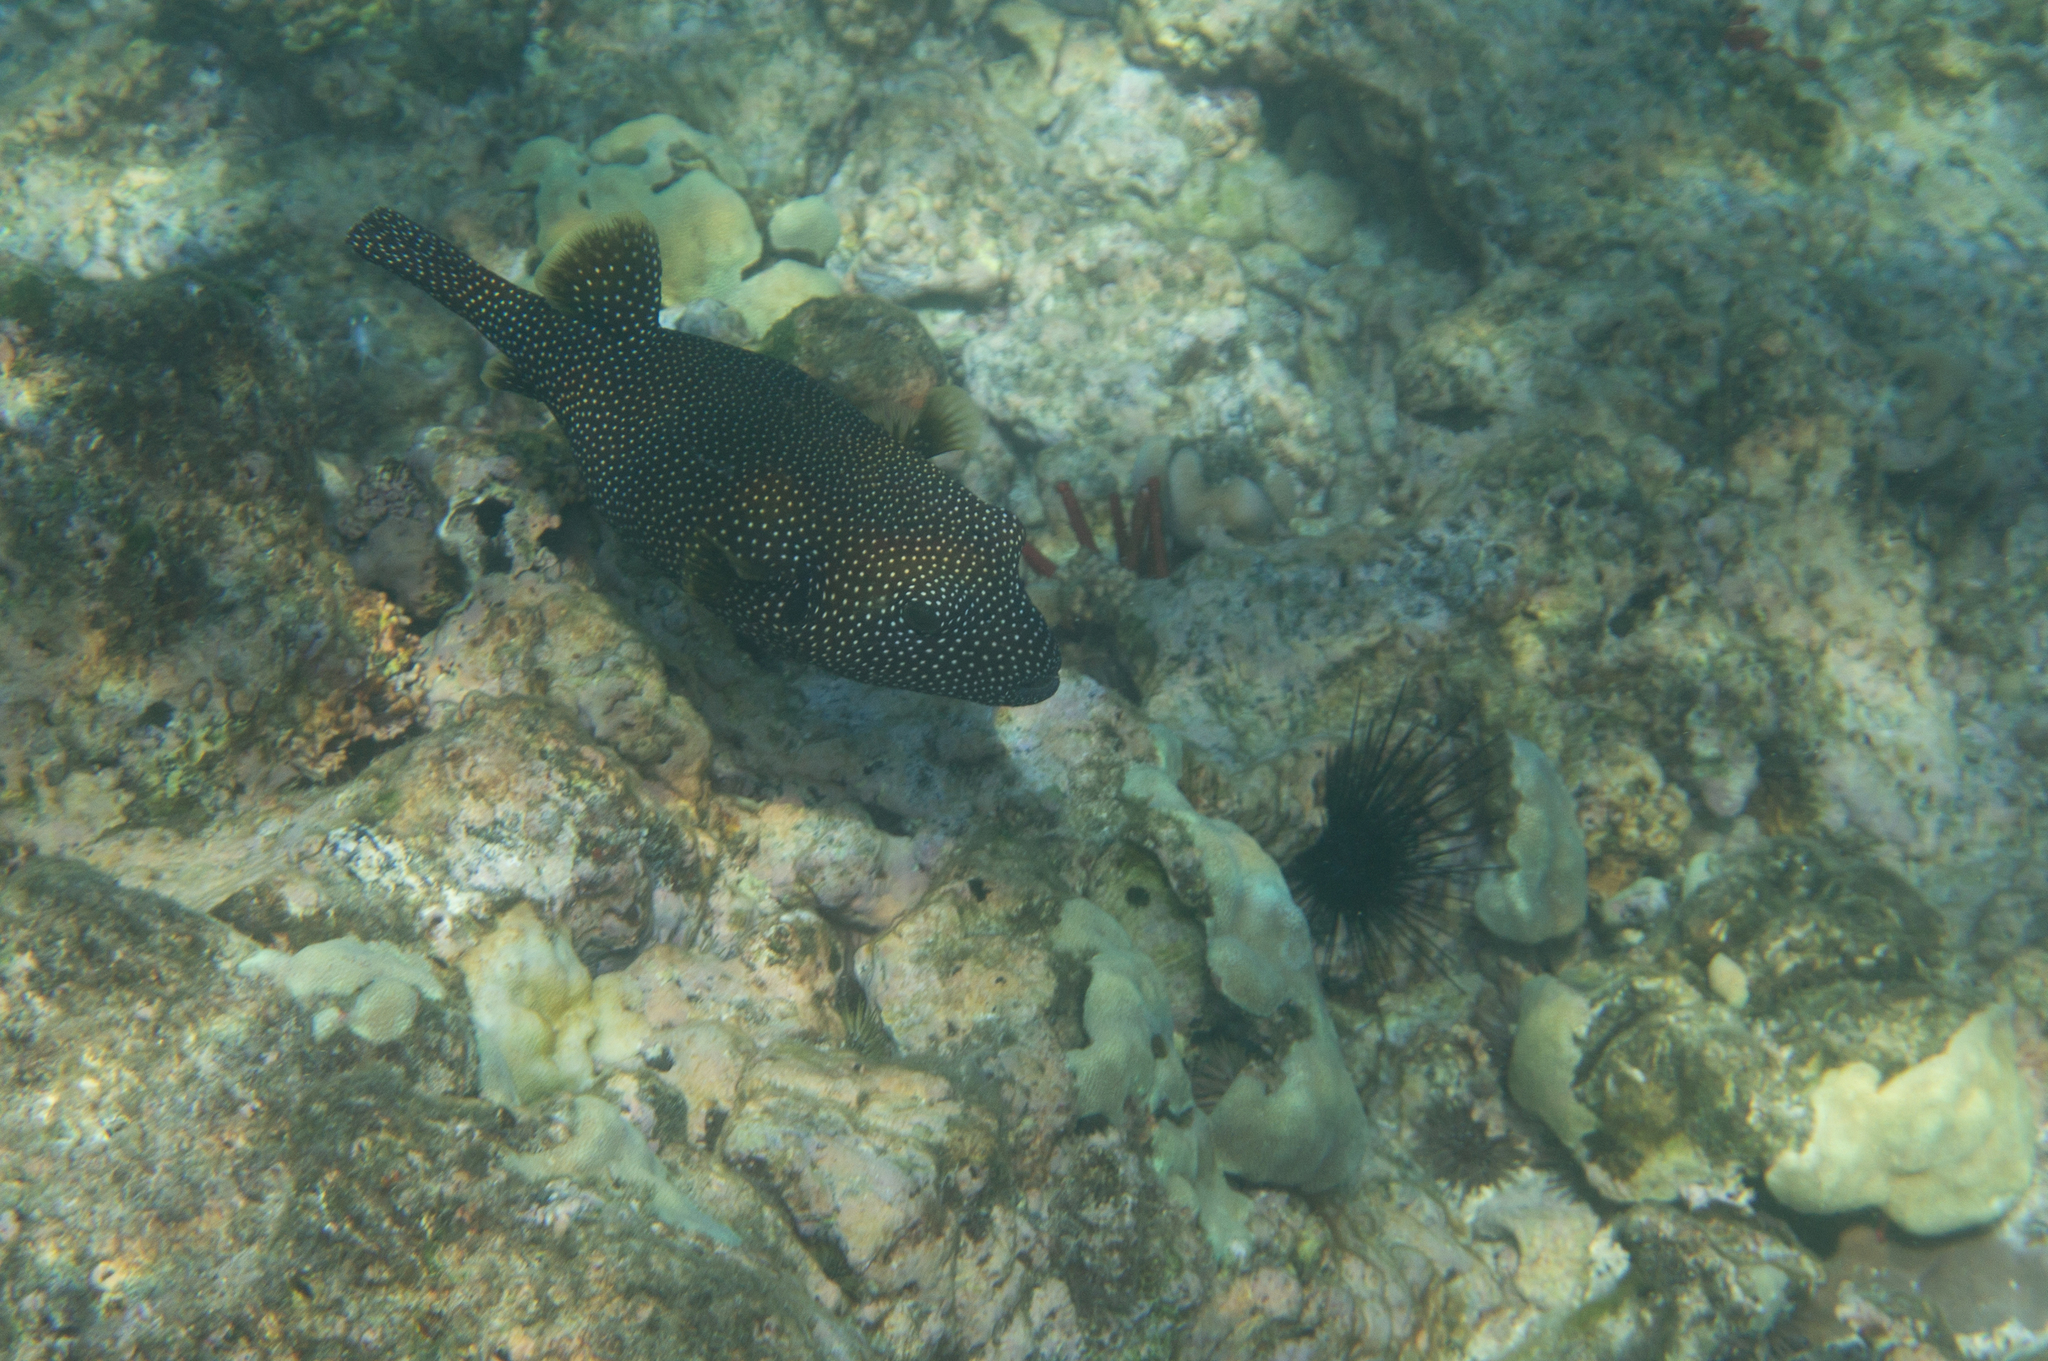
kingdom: Animalia
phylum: Chordata
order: Tetraodontiformes
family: Tetraodontidae
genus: Arothron
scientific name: Arothron meleagris
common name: Guinea-fowl pufferfish
